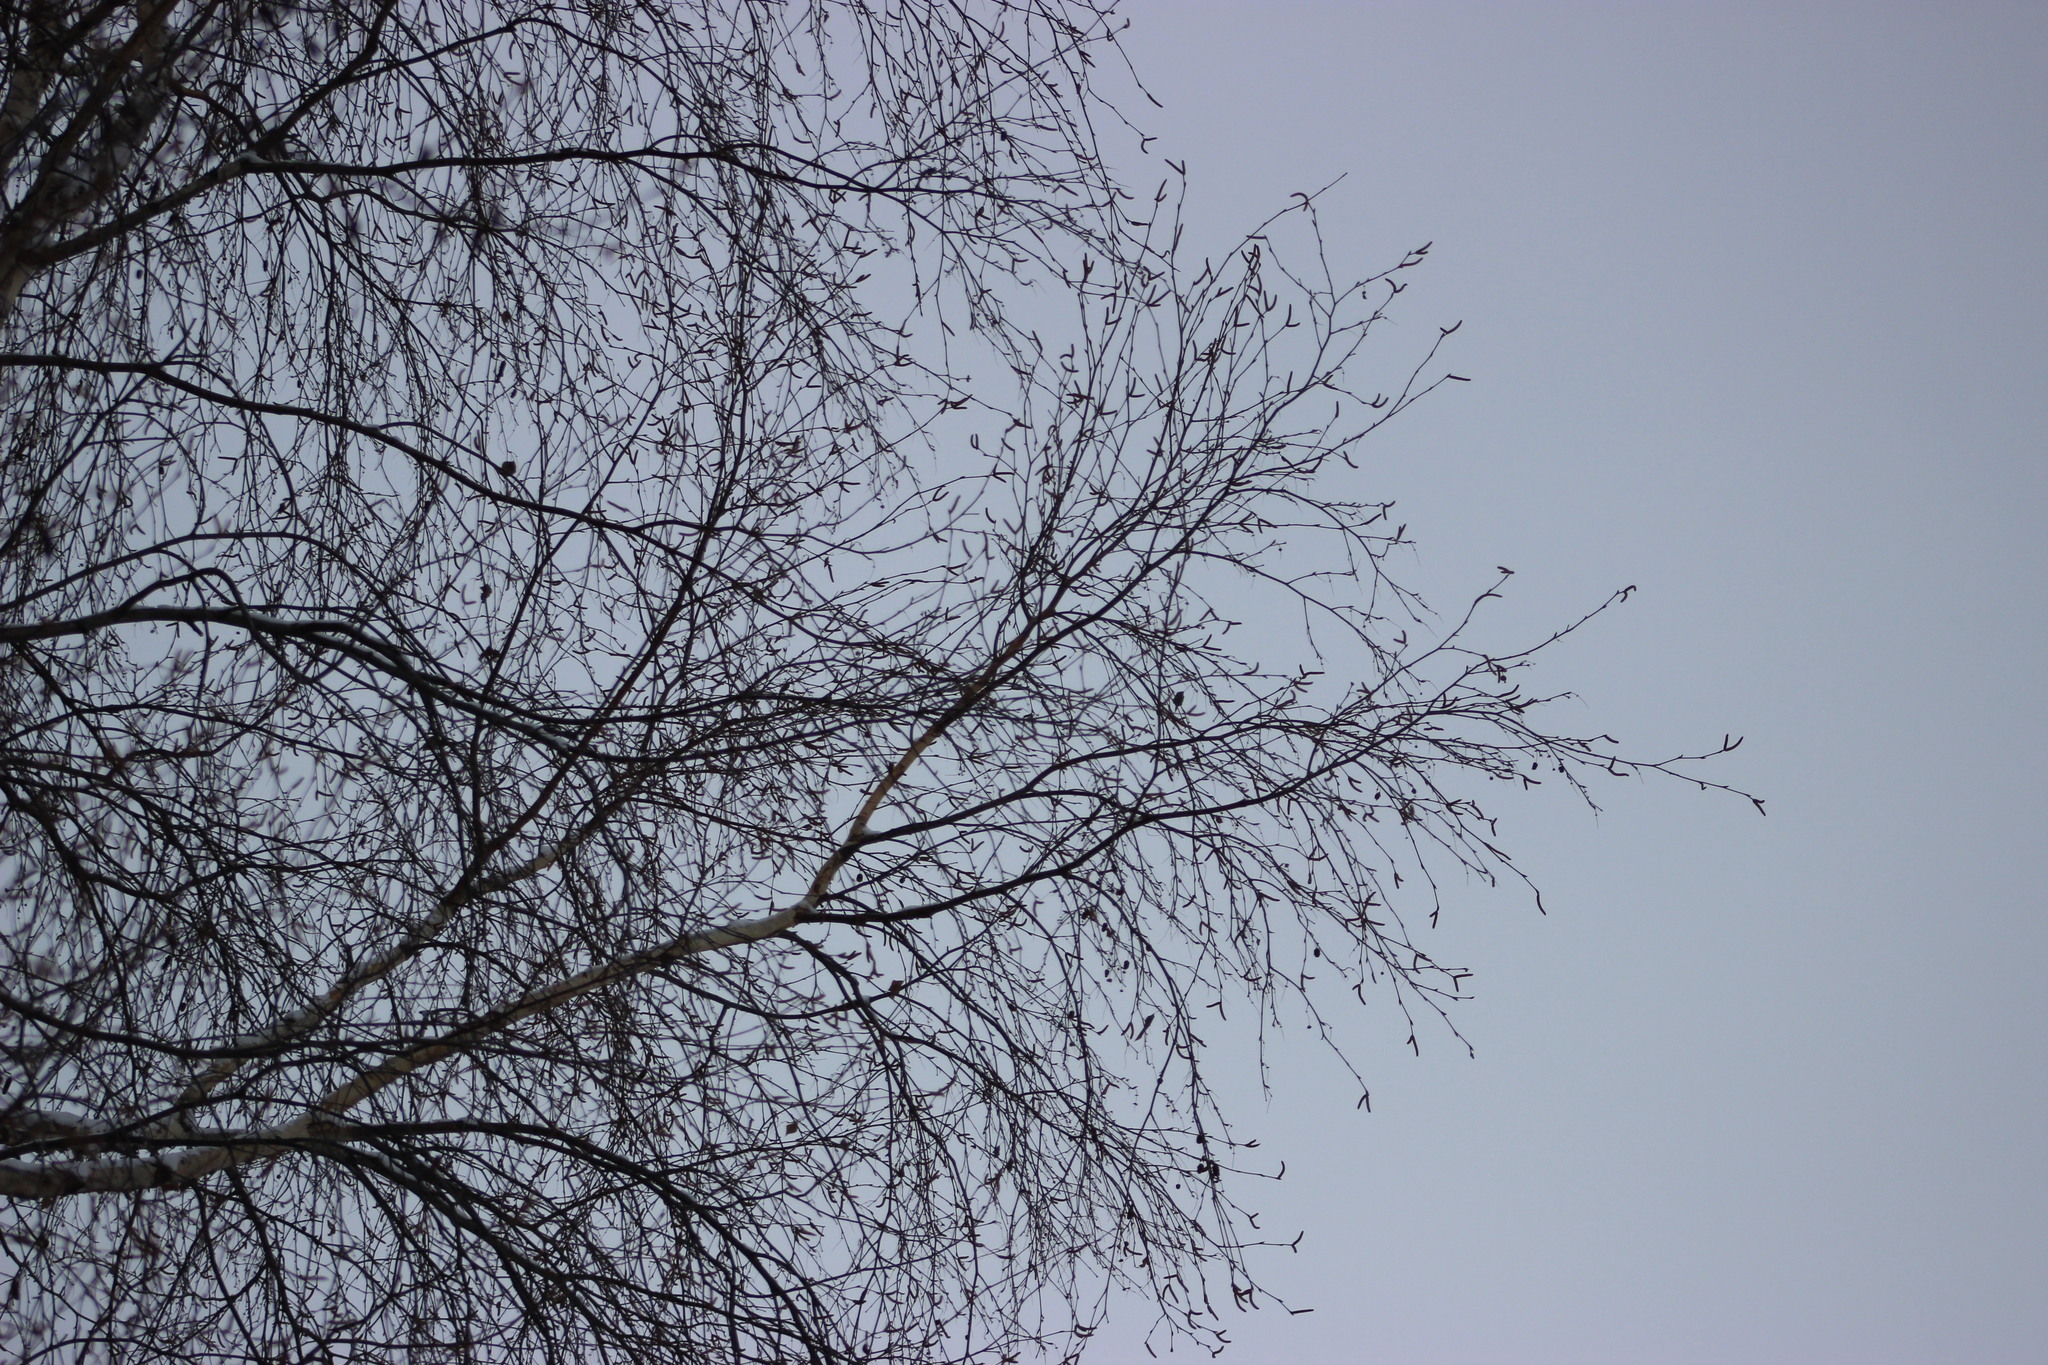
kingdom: Plantae
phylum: Tracheophyta
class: Magnoliopsida
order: Fagales
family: Betulaceae
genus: Betula
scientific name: Betula pubescens
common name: Downy birch
